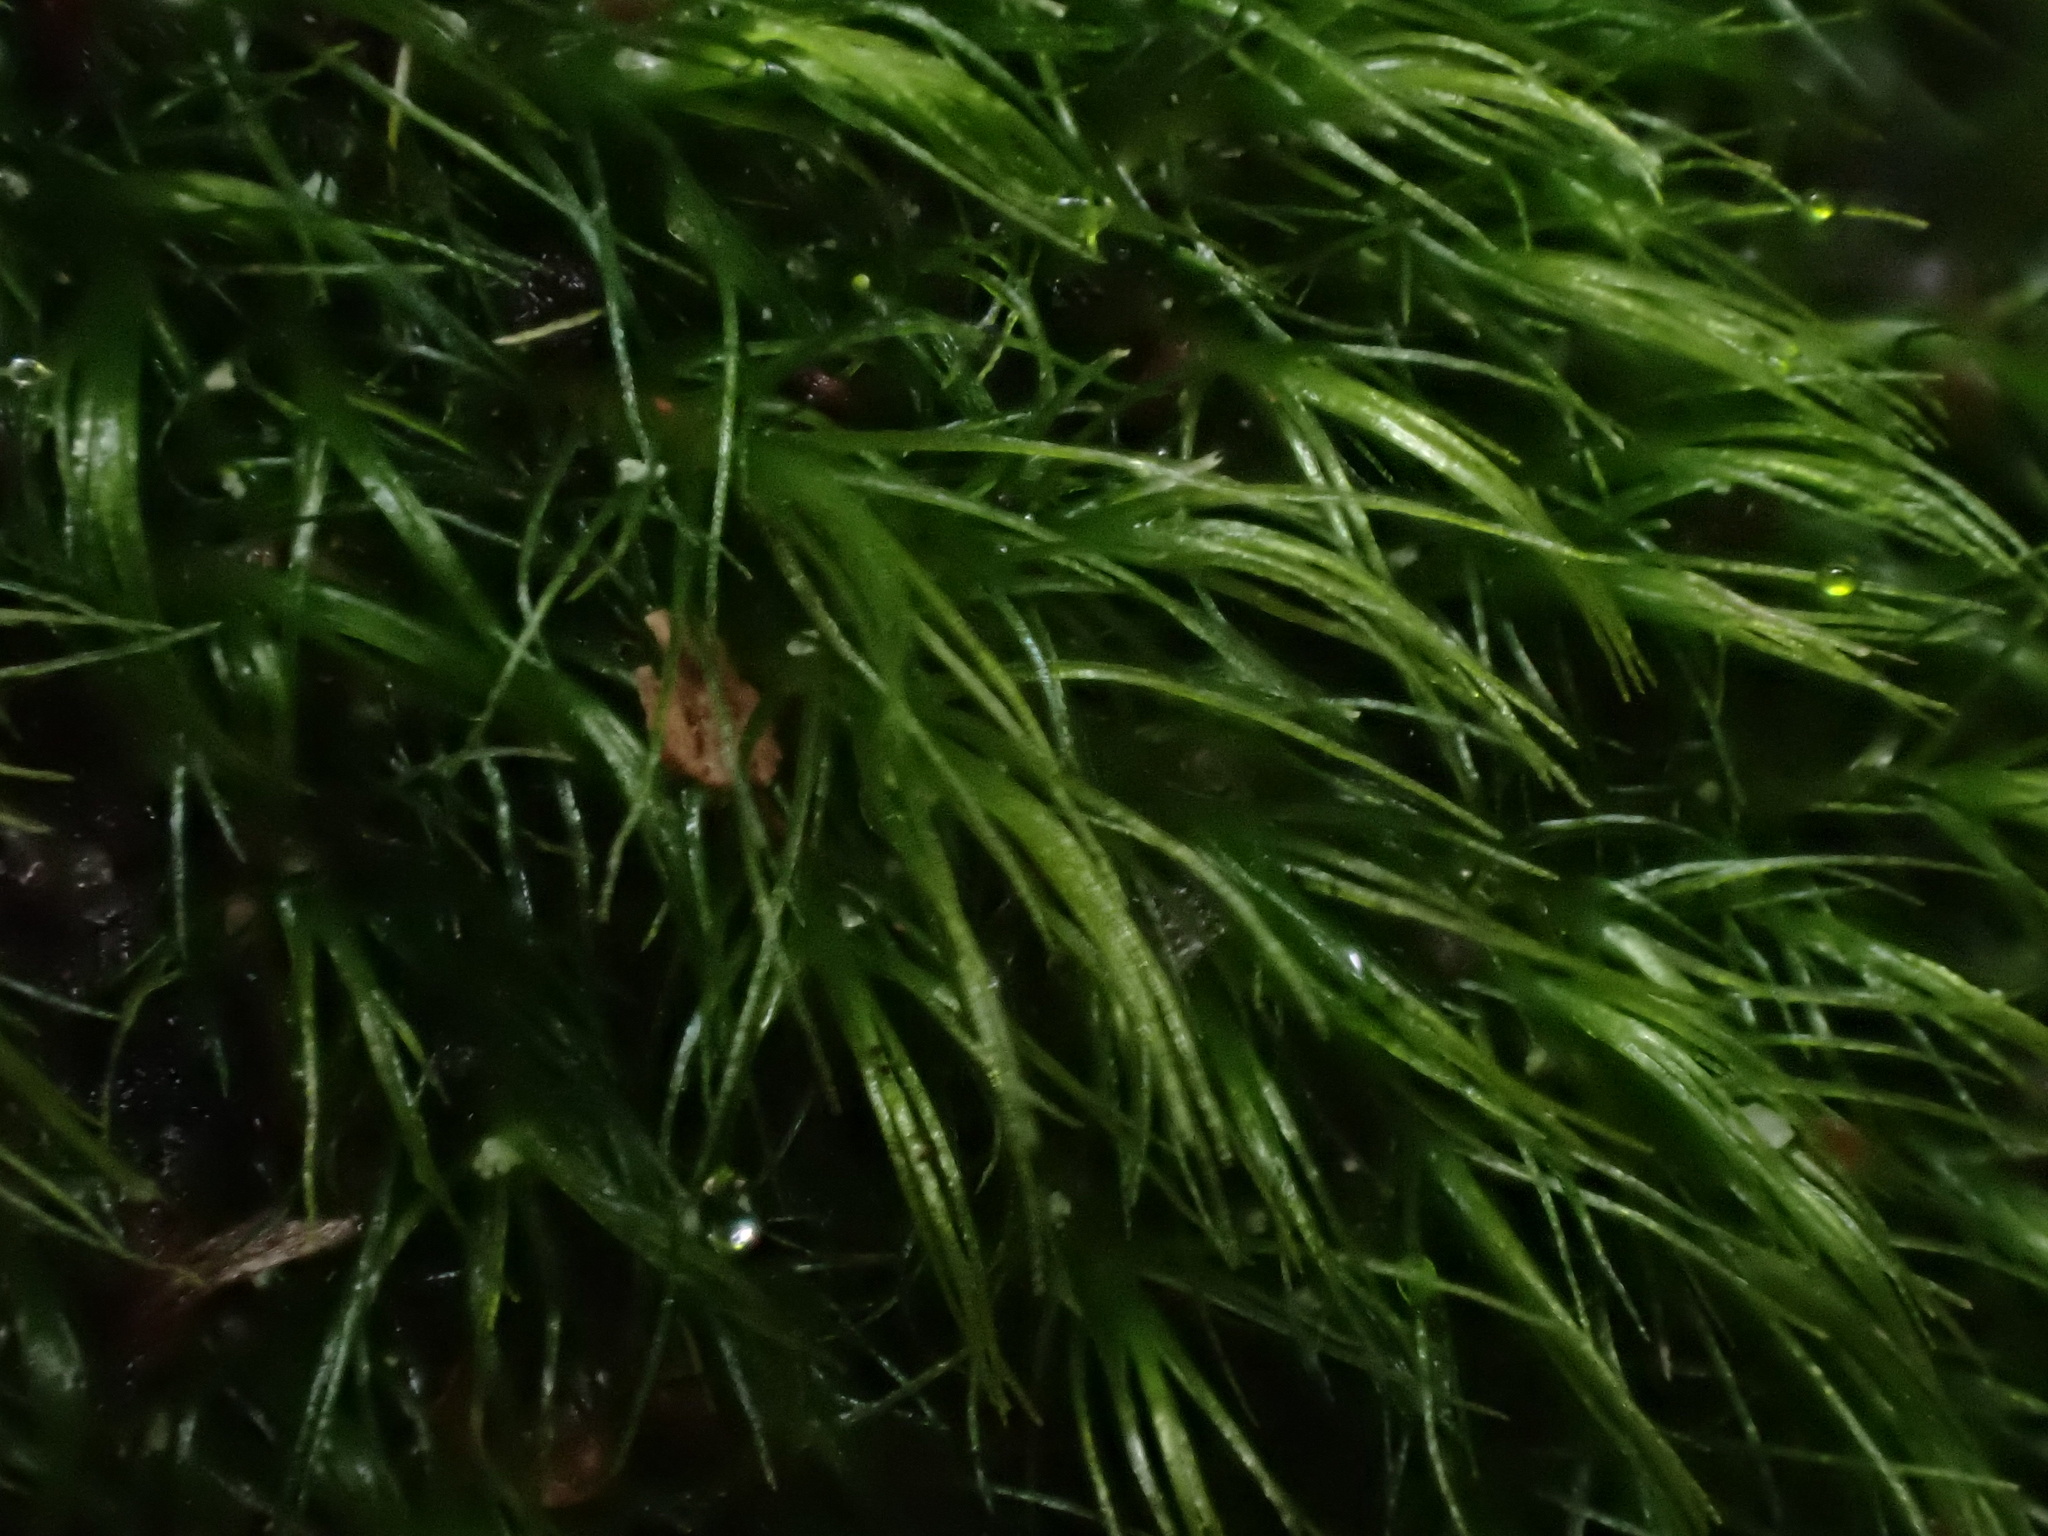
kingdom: Plantae
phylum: Bryophyta
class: Bryopsida
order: Dicranales
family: Dicranellaceae
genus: Dicranella
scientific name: Dicranella heteromalla
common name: Silky forklet moss
